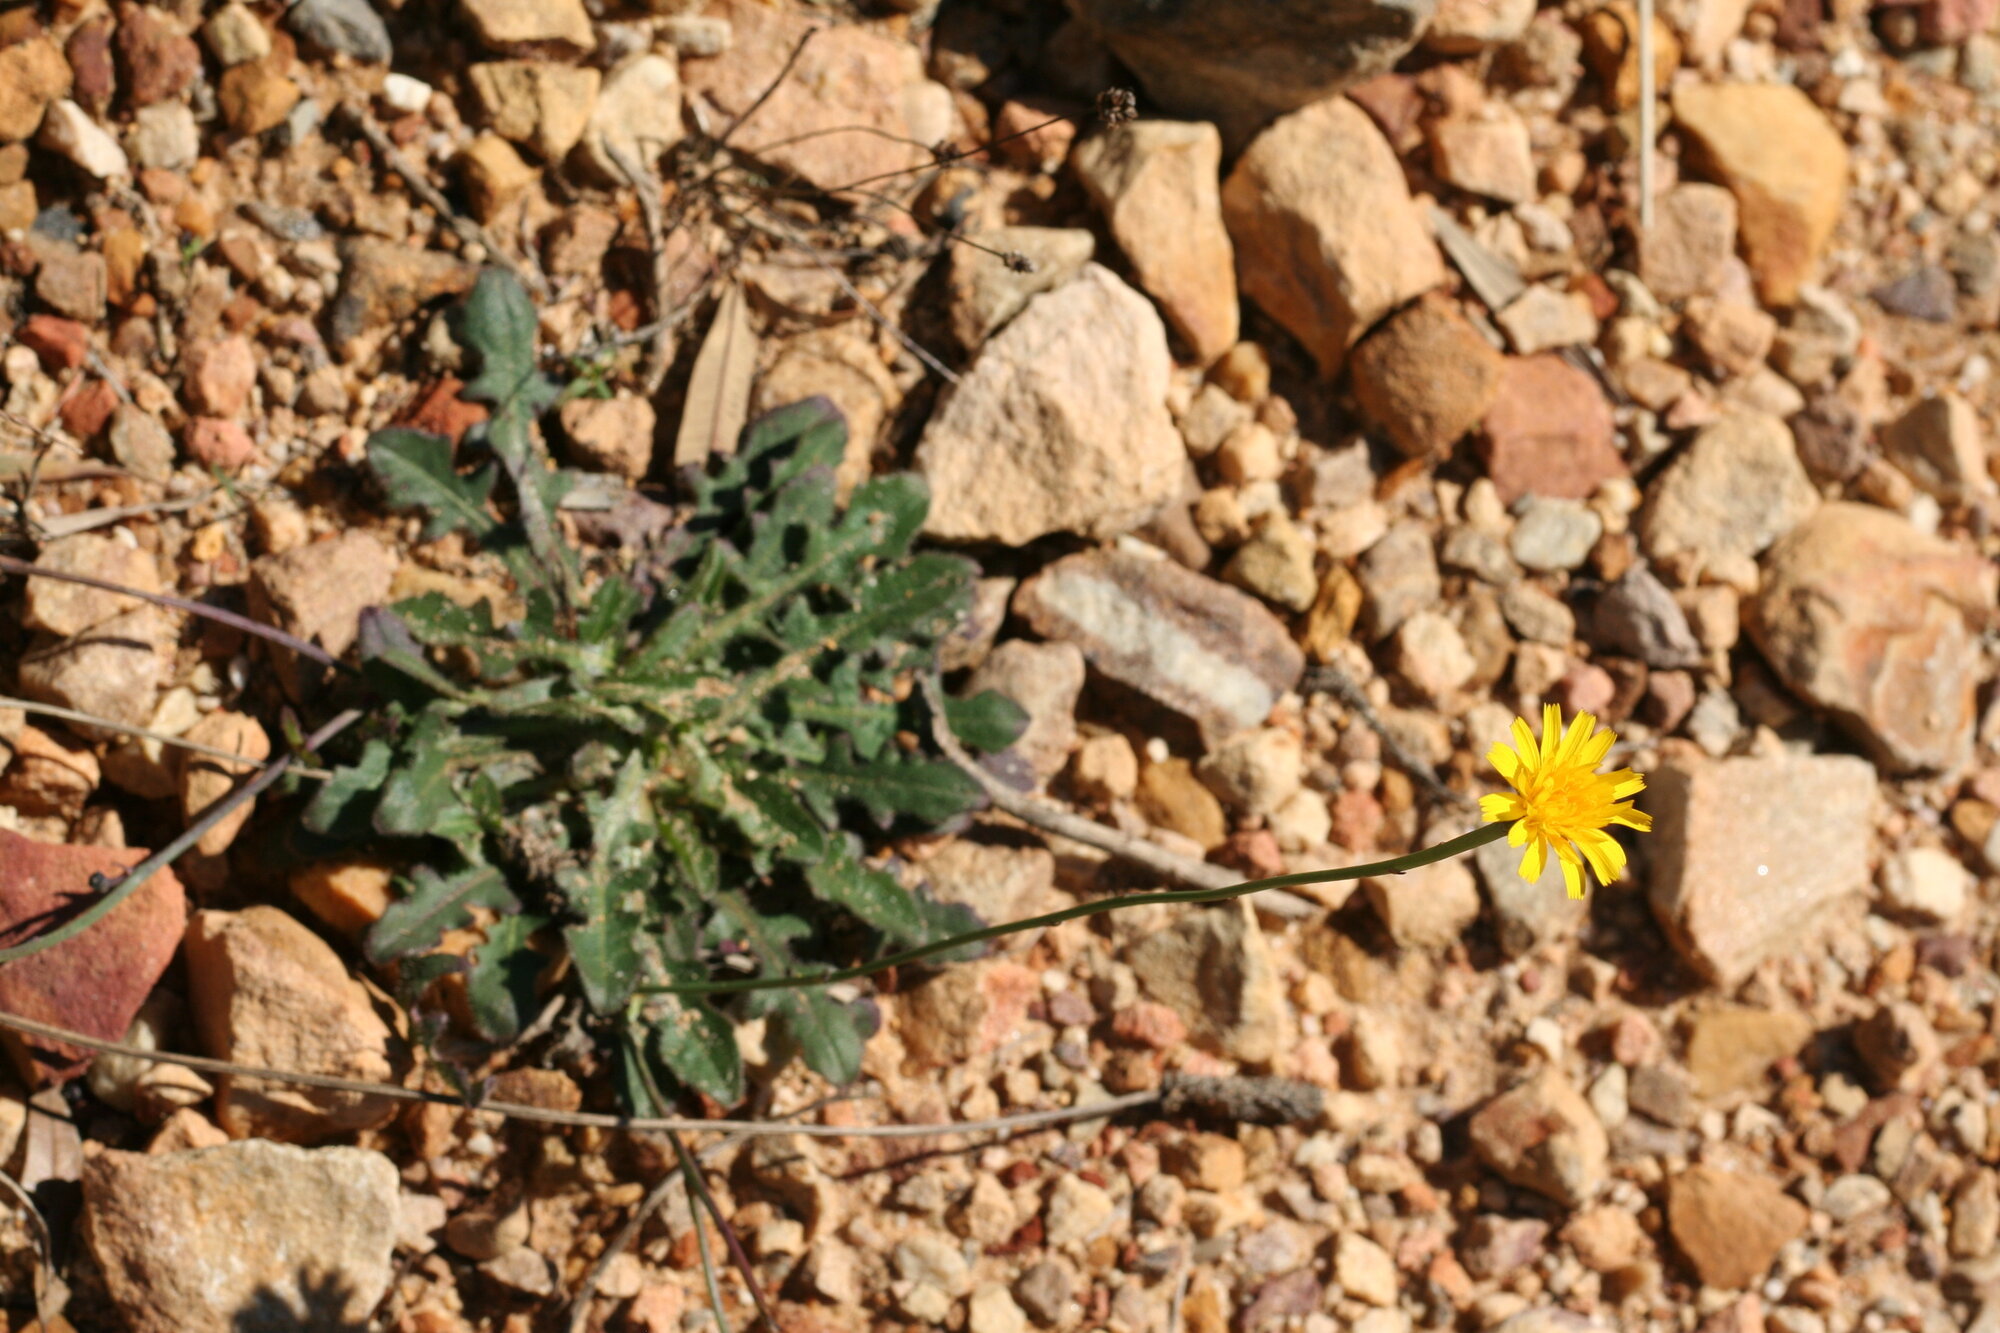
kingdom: Plantae
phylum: Tracheophyta
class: Magnoliopsida
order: Asterales
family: Asteraceae
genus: Hypochaeris
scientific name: Hypochaeris radicata
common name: Flatweed
